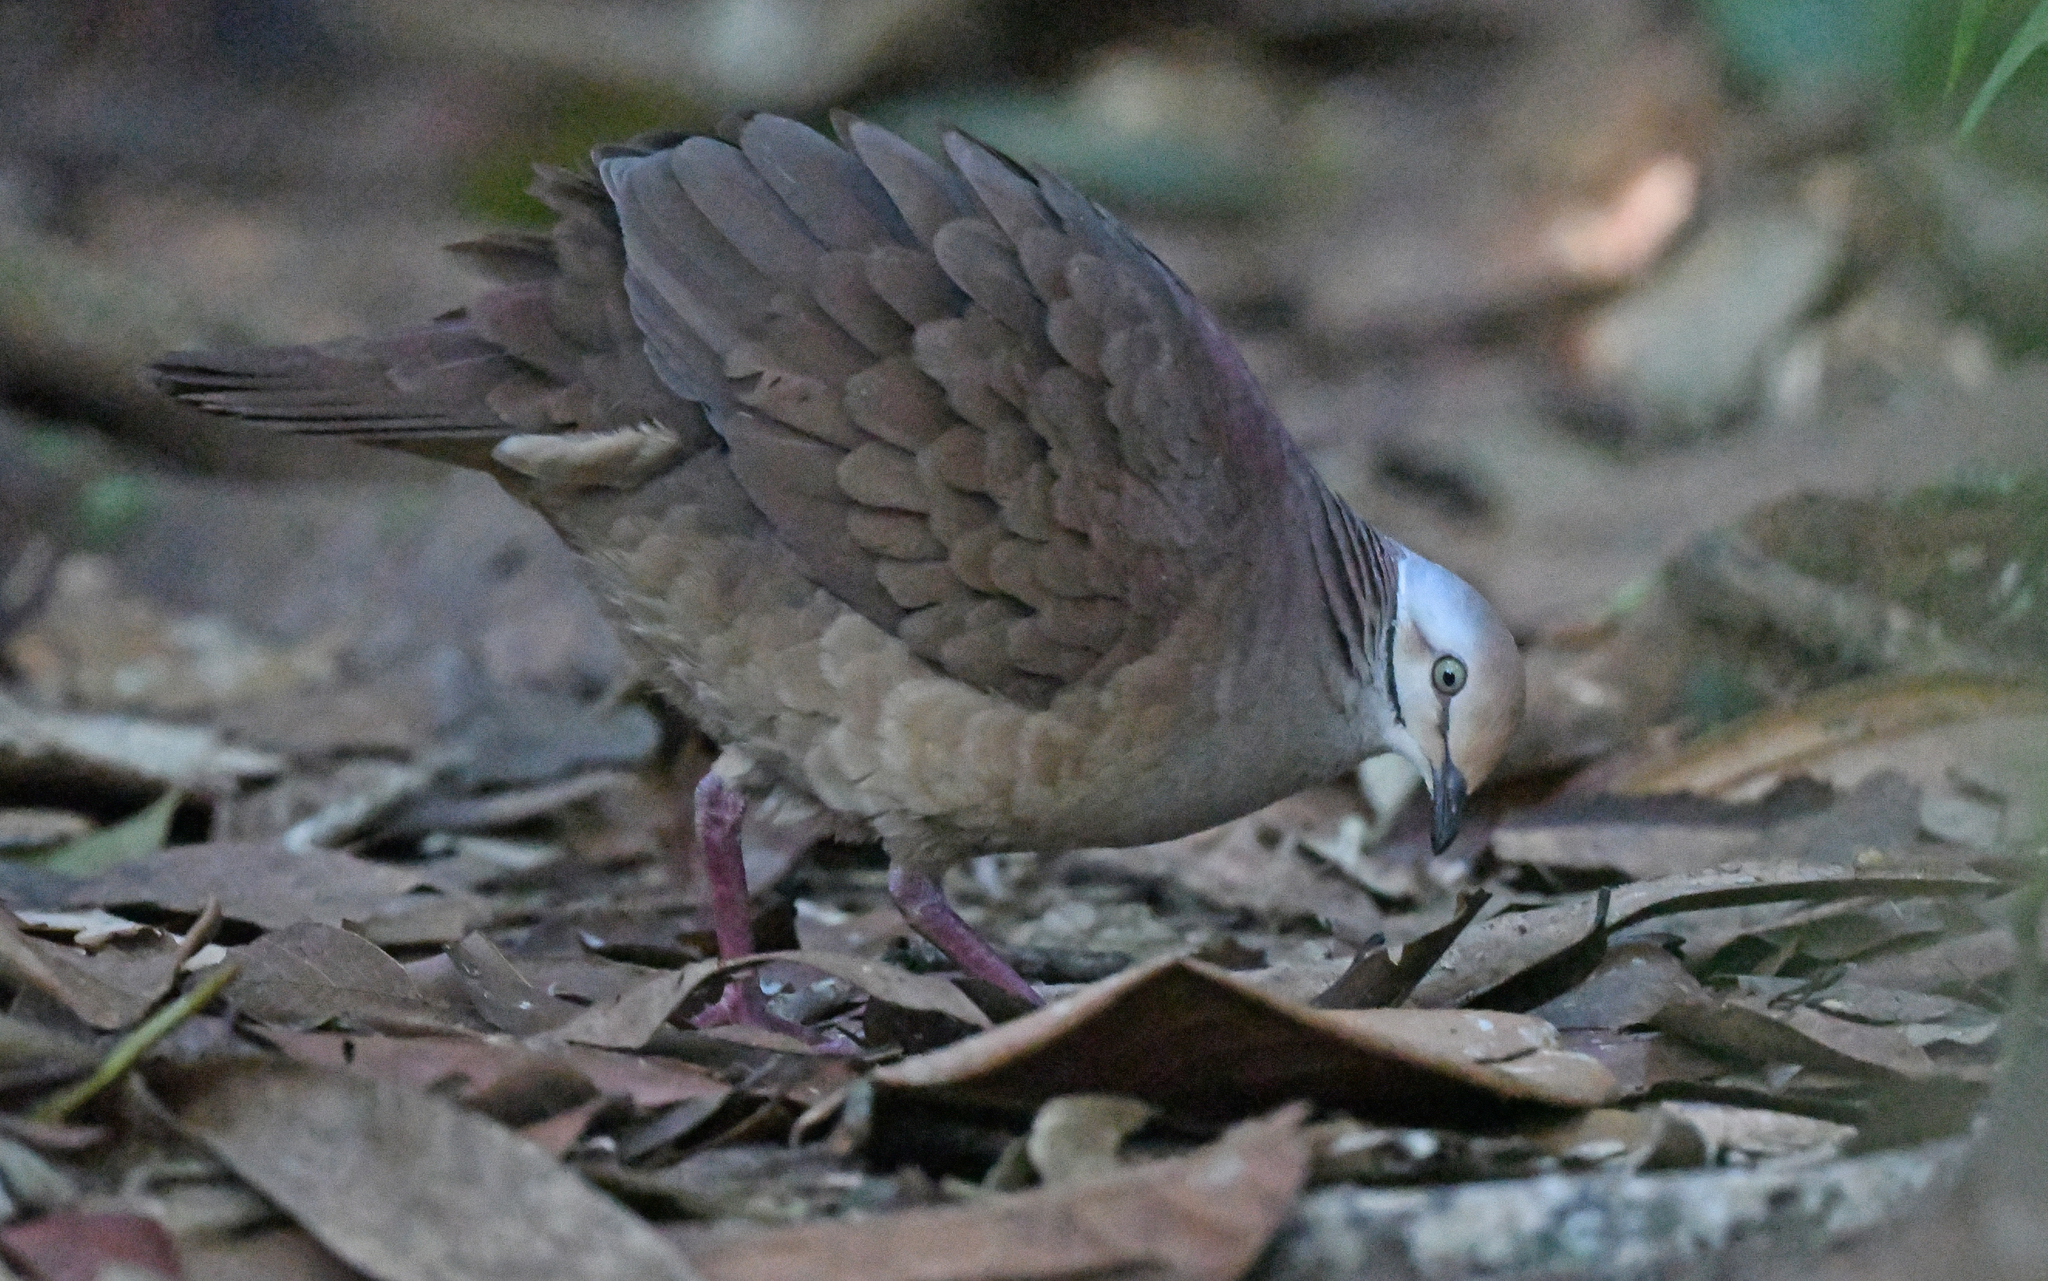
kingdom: Animalia
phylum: Chordata
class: Aves
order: Columbiformes
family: Columbidae
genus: Zentrygon
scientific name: Zentrygon linearis
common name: Lined quail-dove
